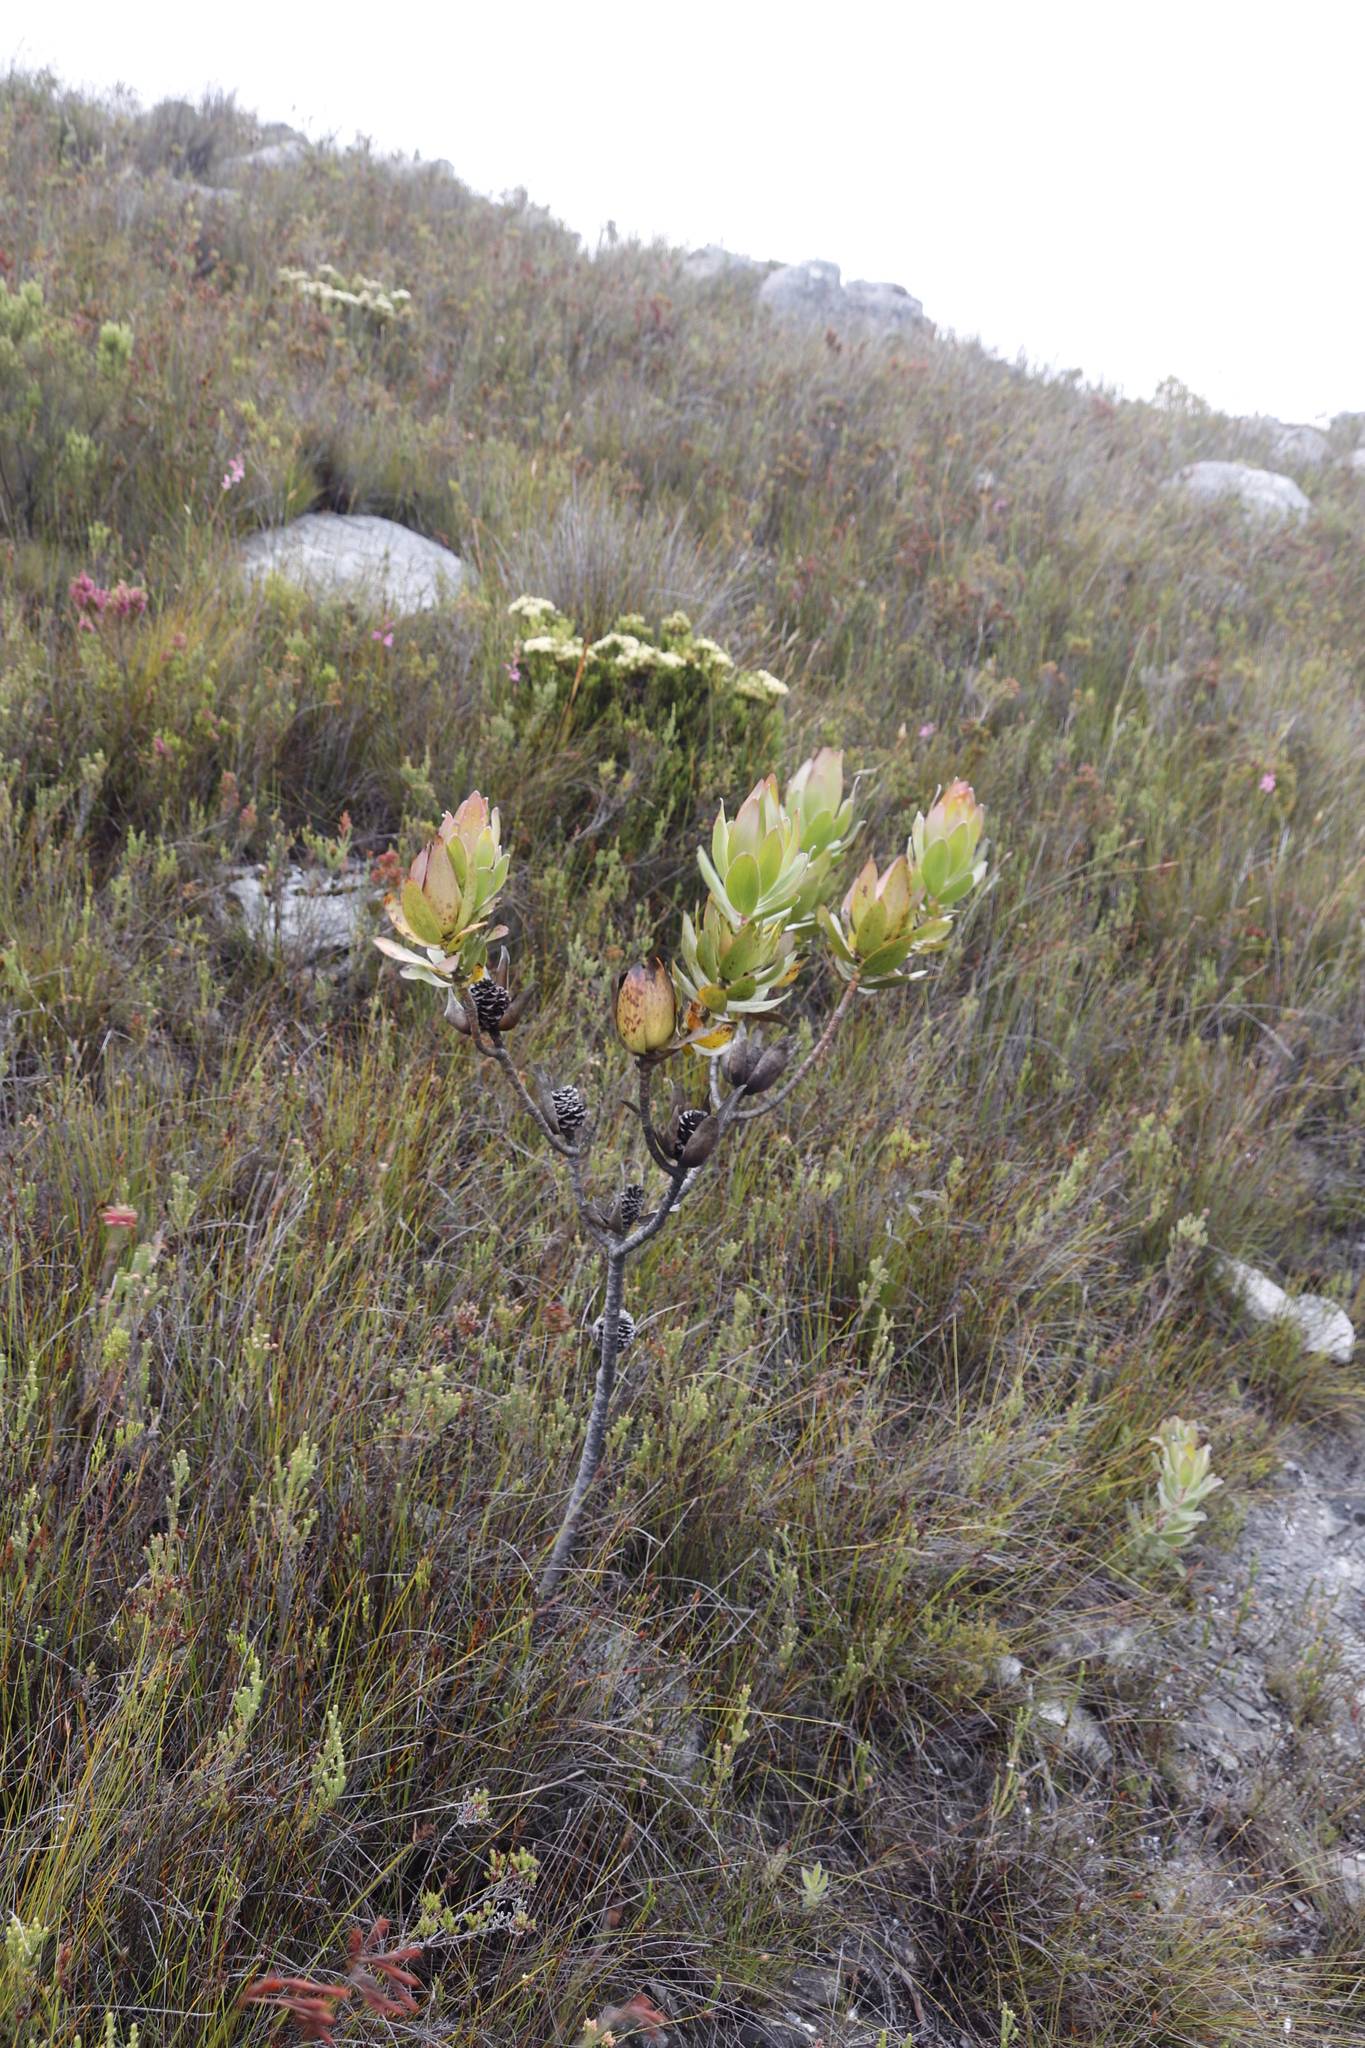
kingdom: Plantae
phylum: Tracheophyta
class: Magnoliopsida
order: Proteales
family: Proteaceae
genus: Leucadendron
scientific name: Leucadendron gandogeri
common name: Broad-leaf conebush
